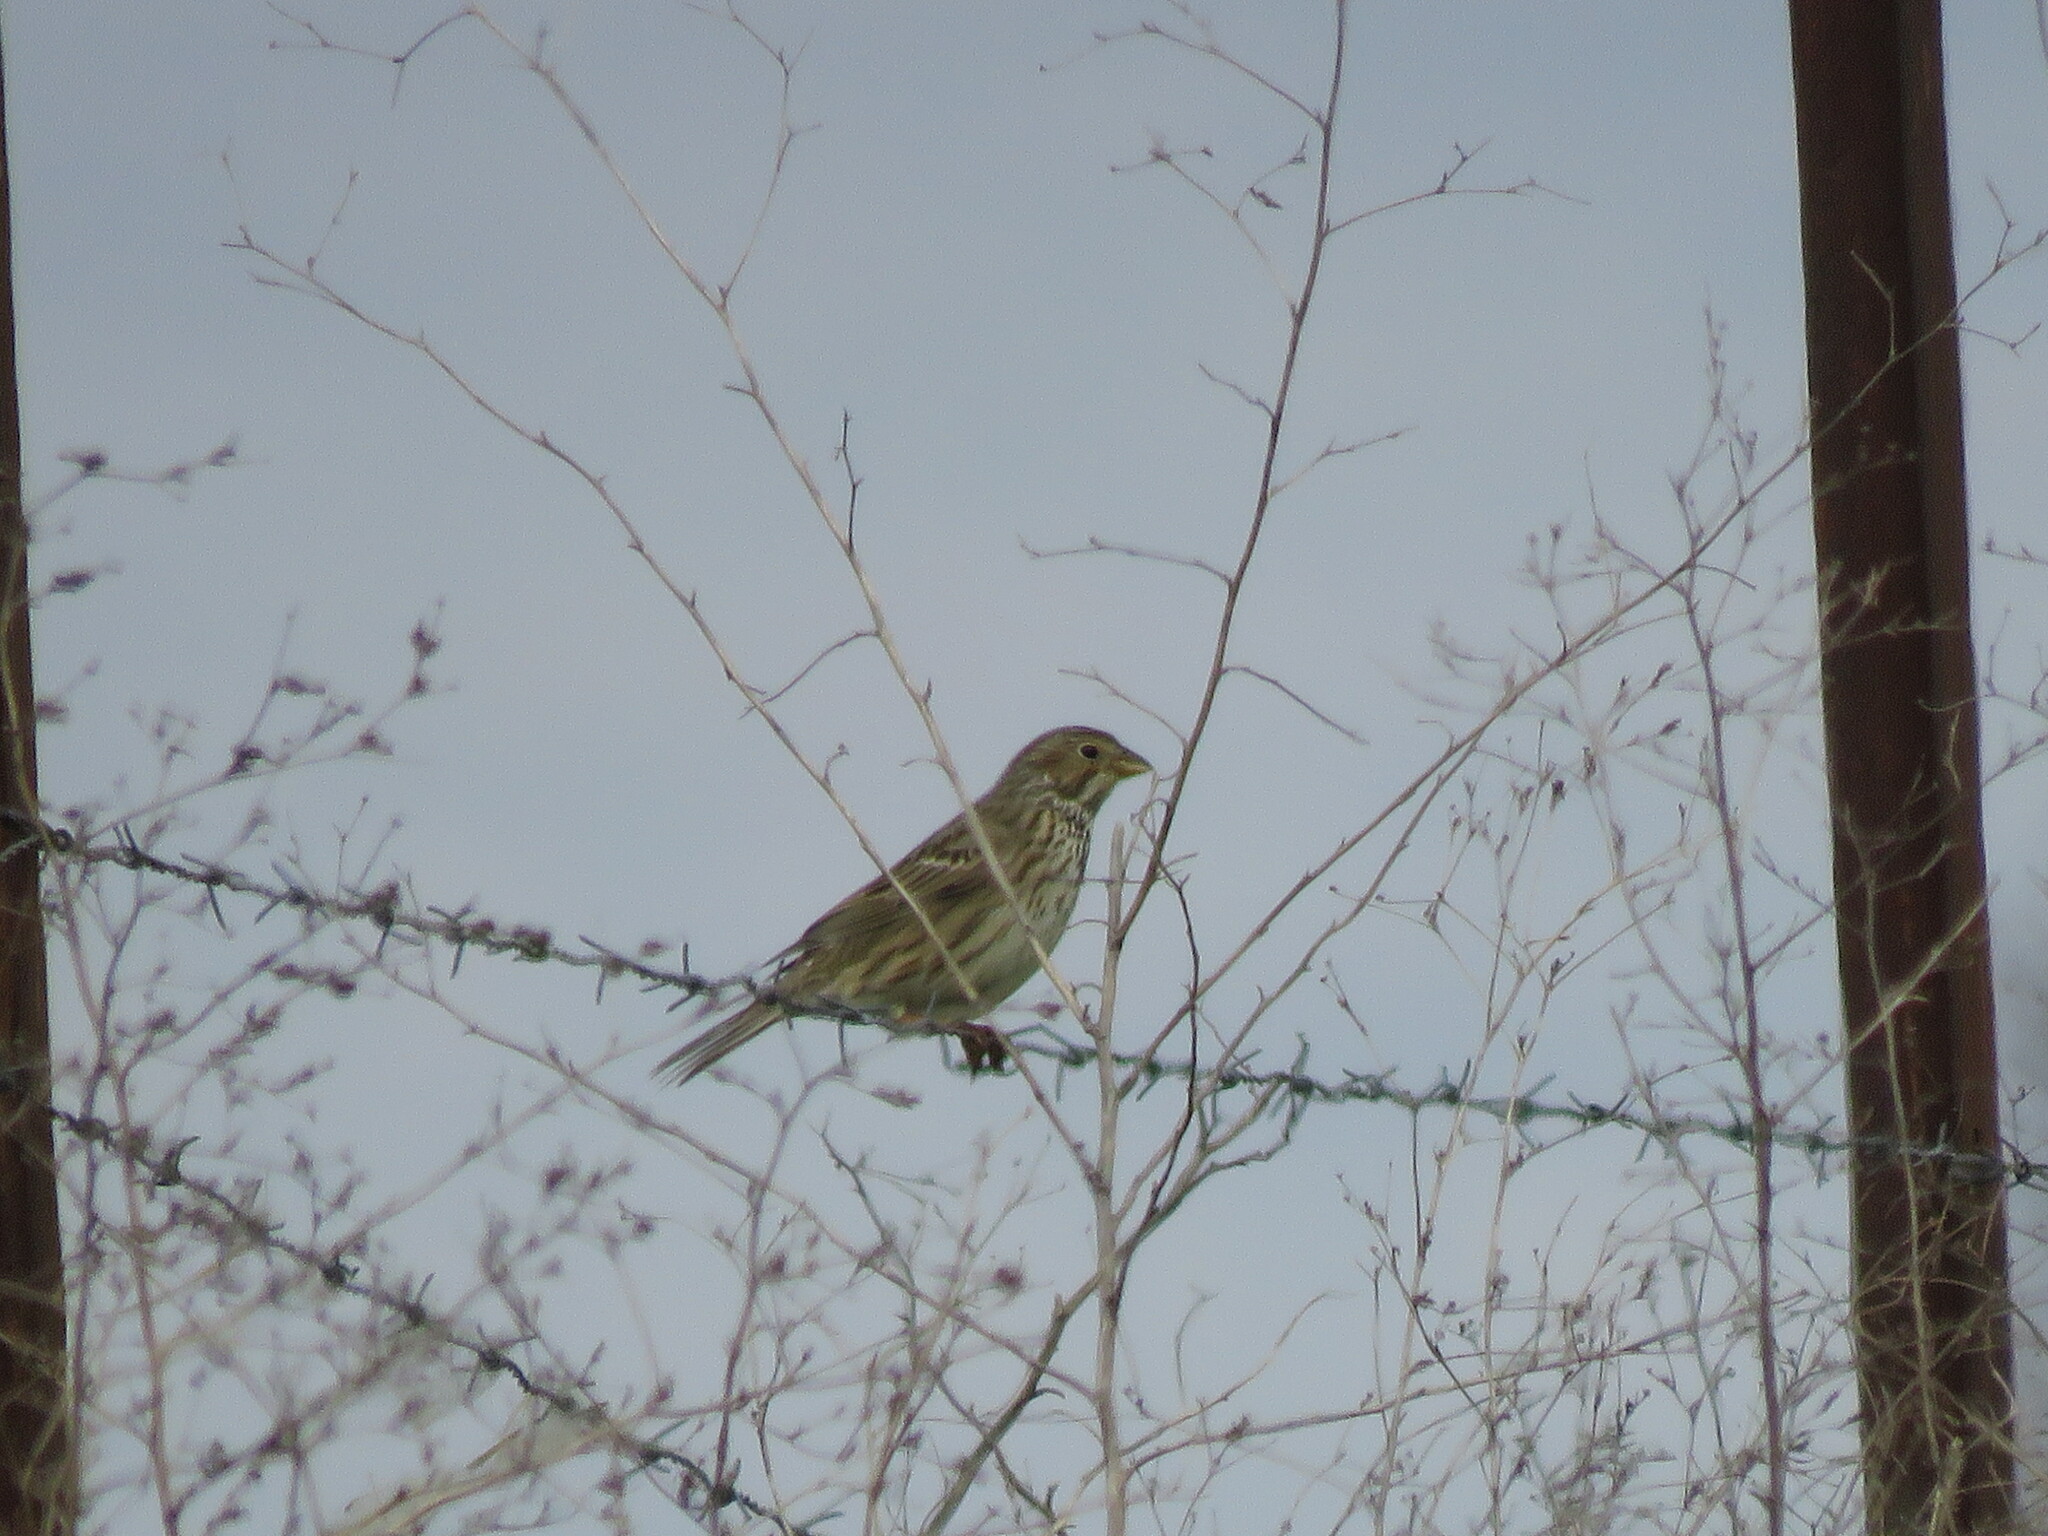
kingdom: Animalia
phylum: Chordata
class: Aves
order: Passeriformes
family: Emberizidae
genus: Emberiza
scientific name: Emberiza calandra
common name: Corn bunting
